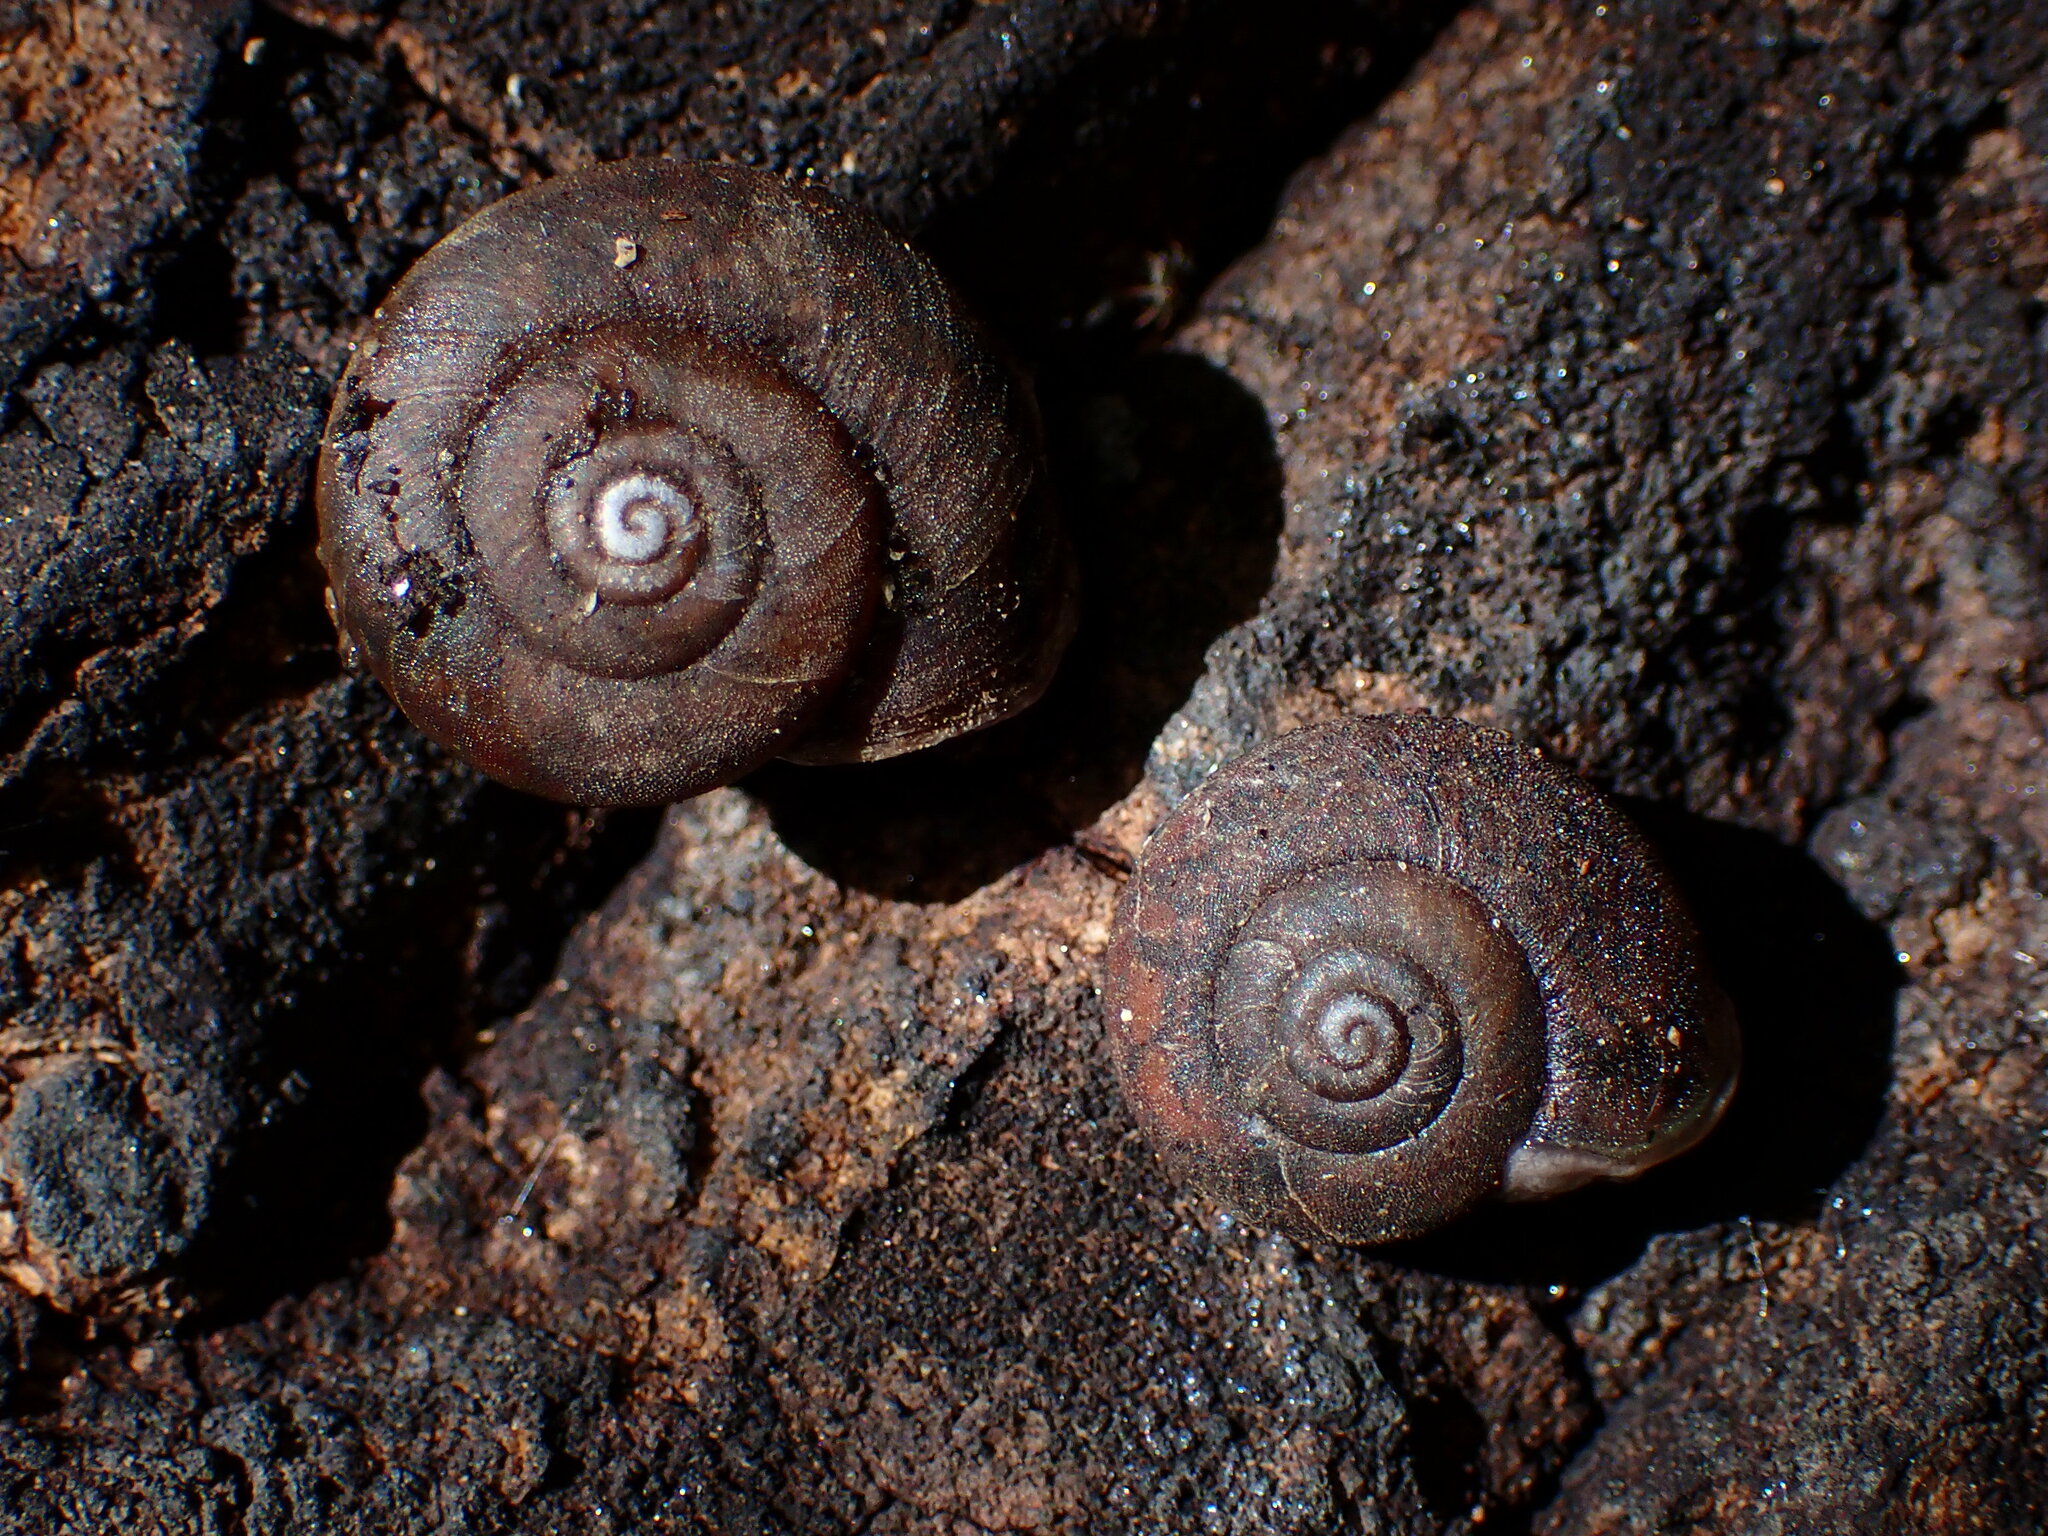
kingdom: Animalia
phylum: Mollusca
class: Gastropoda
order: Stylommatophora
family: Xanthonychidae
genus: Helminthoglypta
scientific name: Helminthoglypta montezuma
